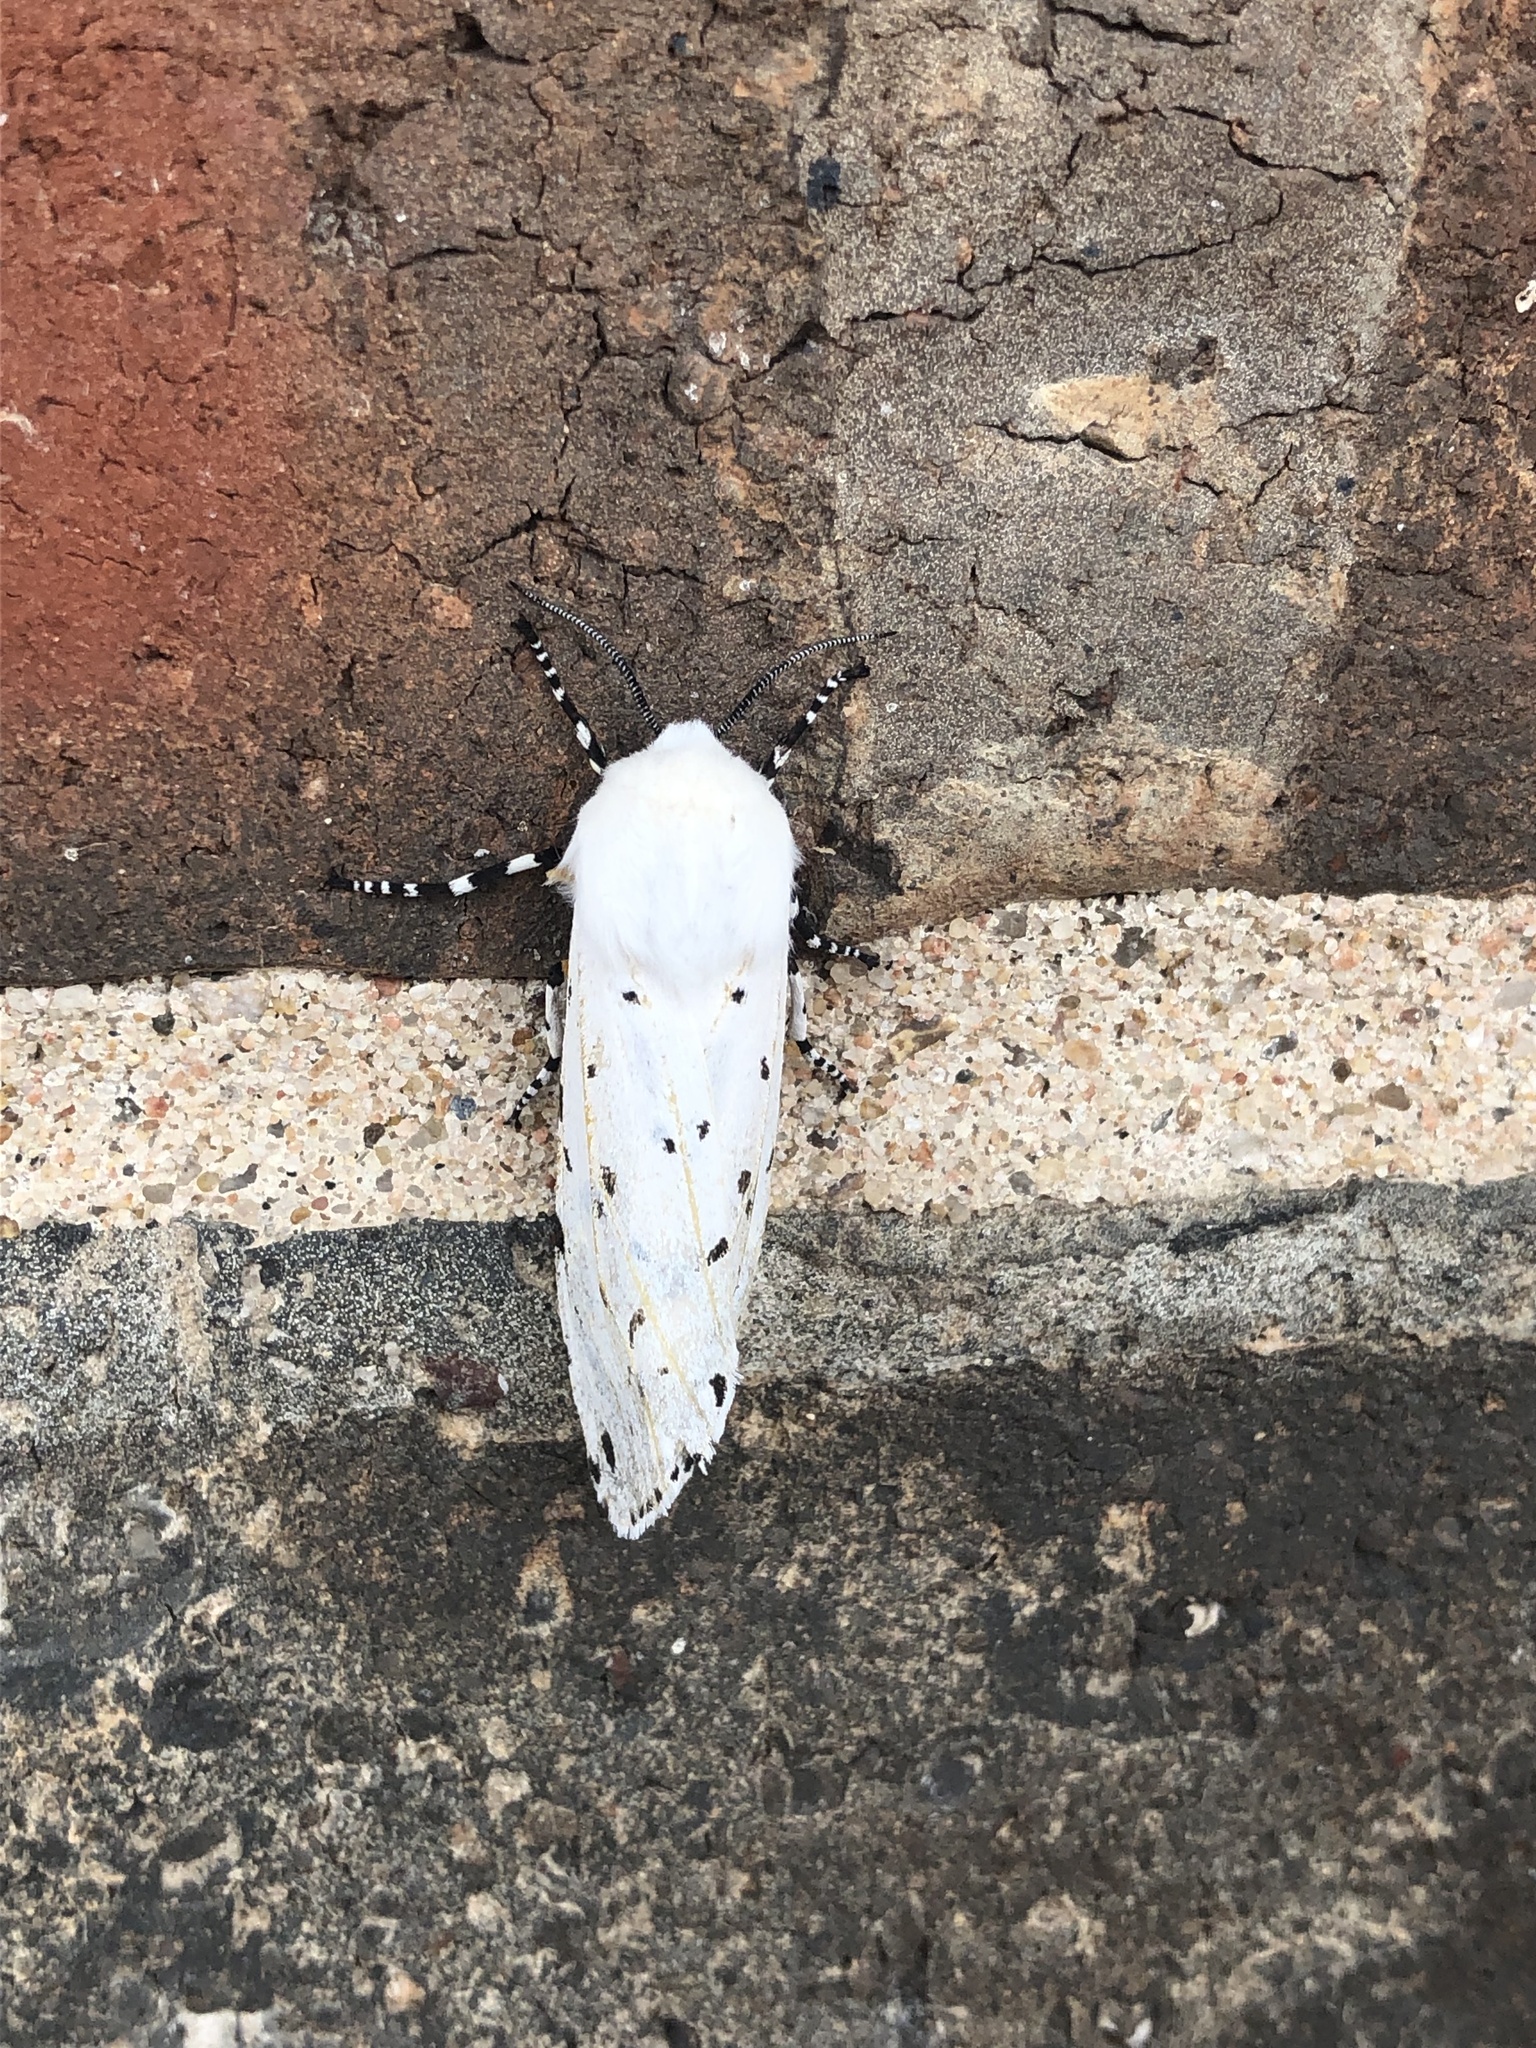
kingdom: Animalia
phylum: Arthropoda
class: Insecta
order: Lepidoptera
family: Erebidae
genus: Estigmene
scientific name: Estigmene acrea
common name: Salt marsh moth
